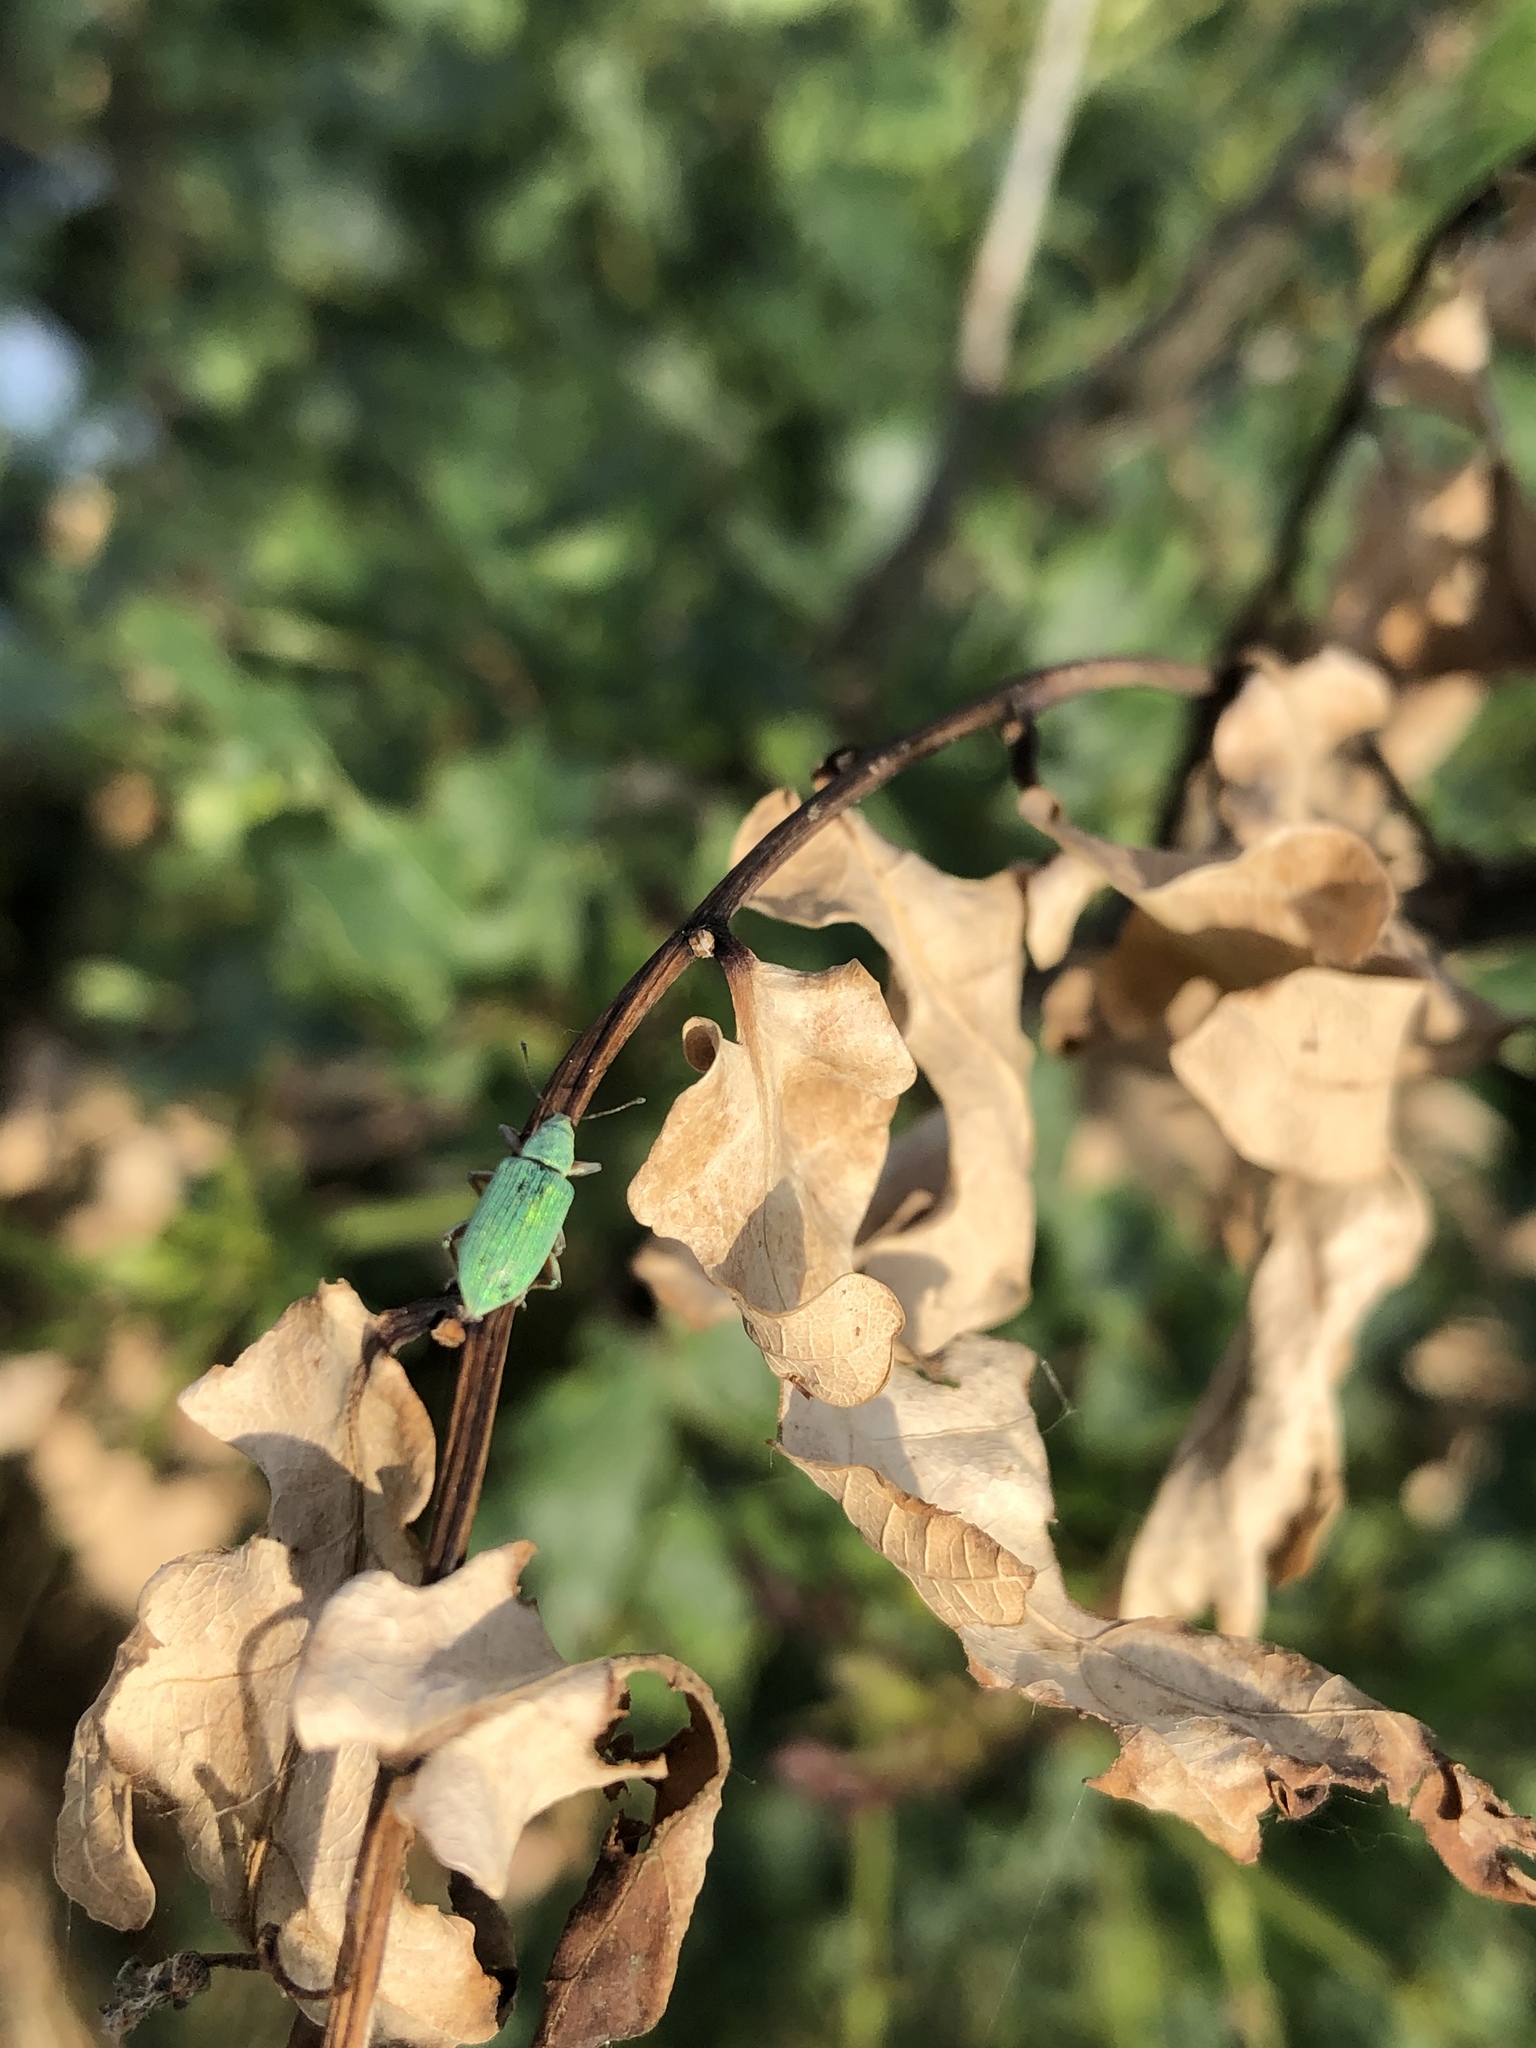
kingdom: Animalia
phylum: Arthropoda
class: Insecta
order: Coleoptera
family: Curculionidae
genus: Polydrusus
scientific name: Polydrusus formosus
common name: Weevil
